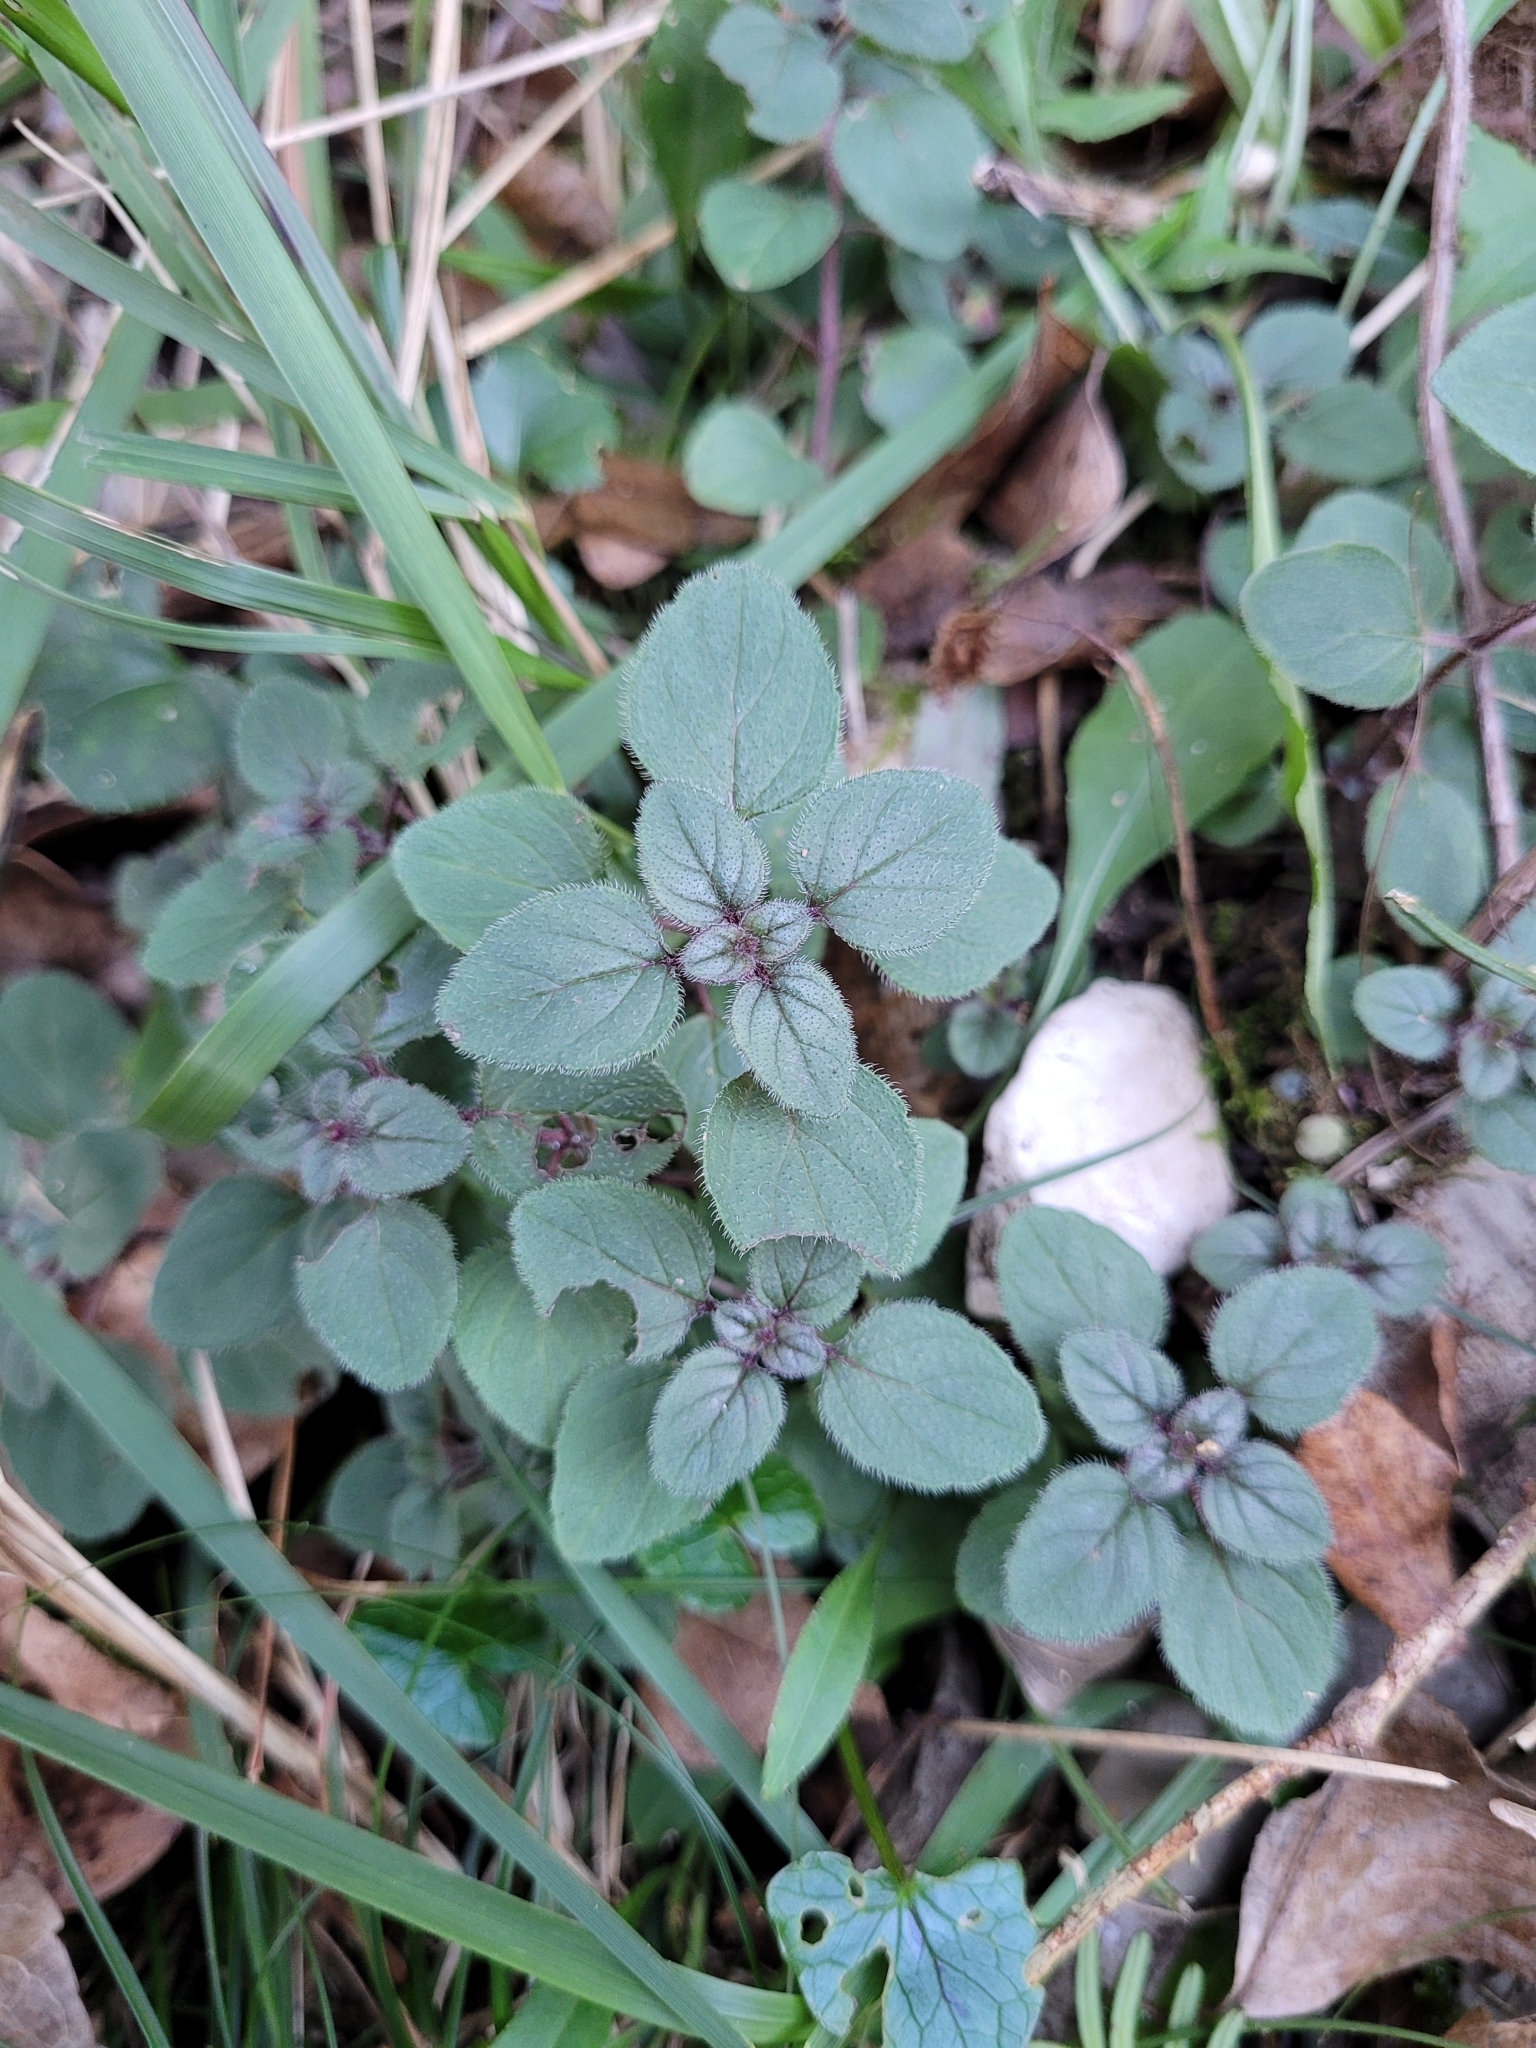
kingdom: Plantae
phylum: Tracheophyta
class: Magnoliopsida
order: Lamiales
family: Lamiaceae
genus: Origanum
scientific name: Origanum vulgare
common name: Wild marjoram
